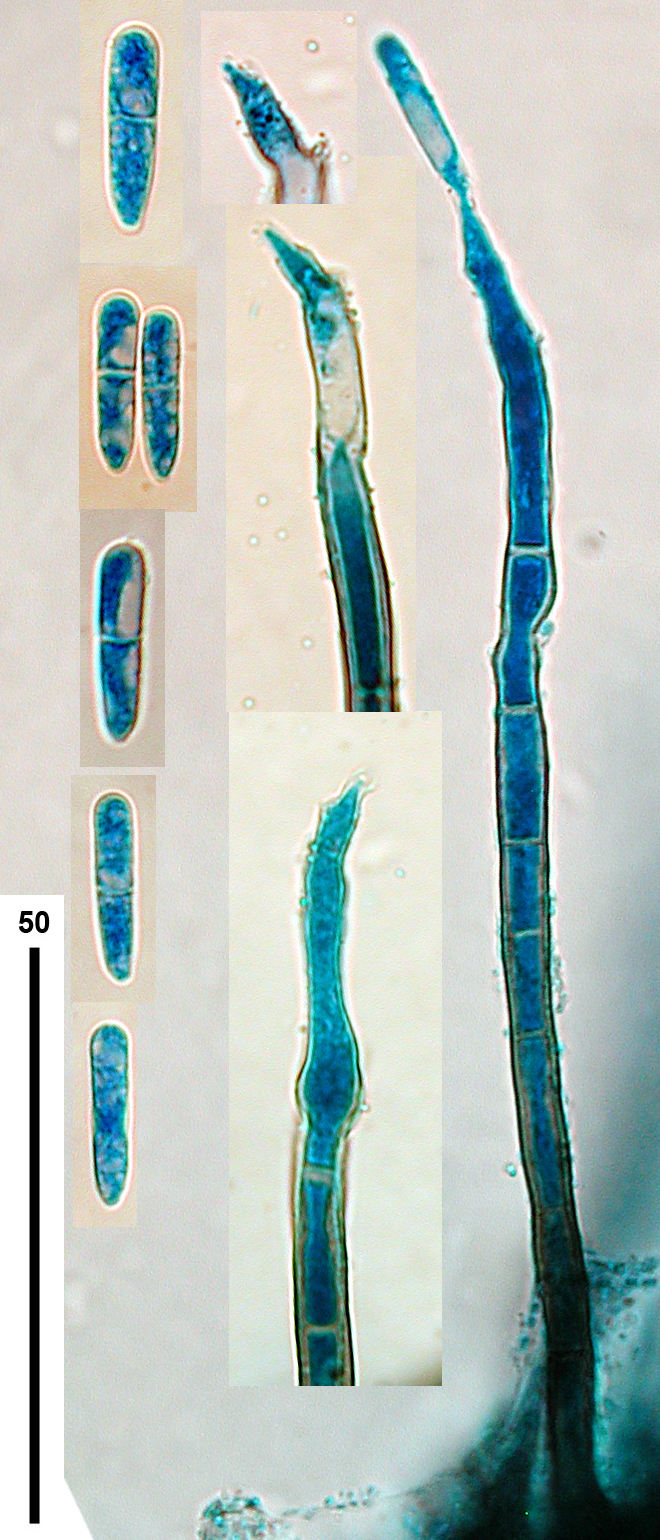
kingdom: Fungi
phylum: Ascomycota
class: Sordariomycetes
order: Chaetosphaeriales
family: Chaetosphaeriaceae
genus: Cylindrotrichum
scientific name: Cylindrotrichum clavatum
